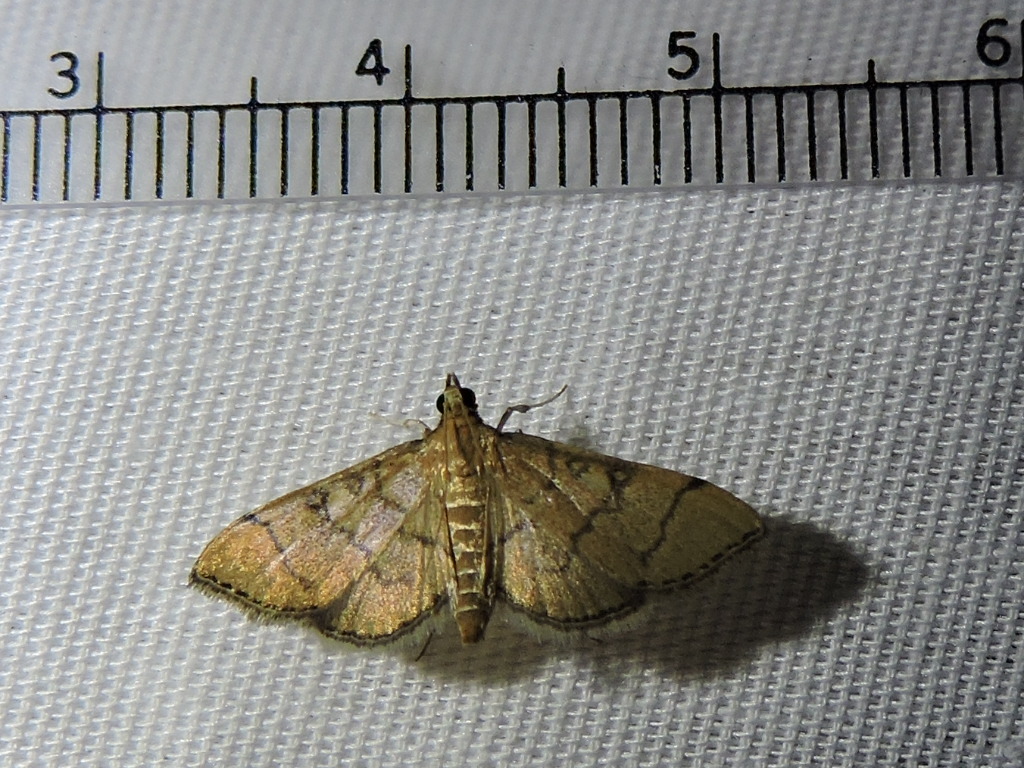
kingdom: Animalia
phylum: Arthropoda
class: Insecta
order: Lepidoptera
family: Crambidae
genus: Lamprosema
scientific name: Lamprosema Blepharomastix ranalis
